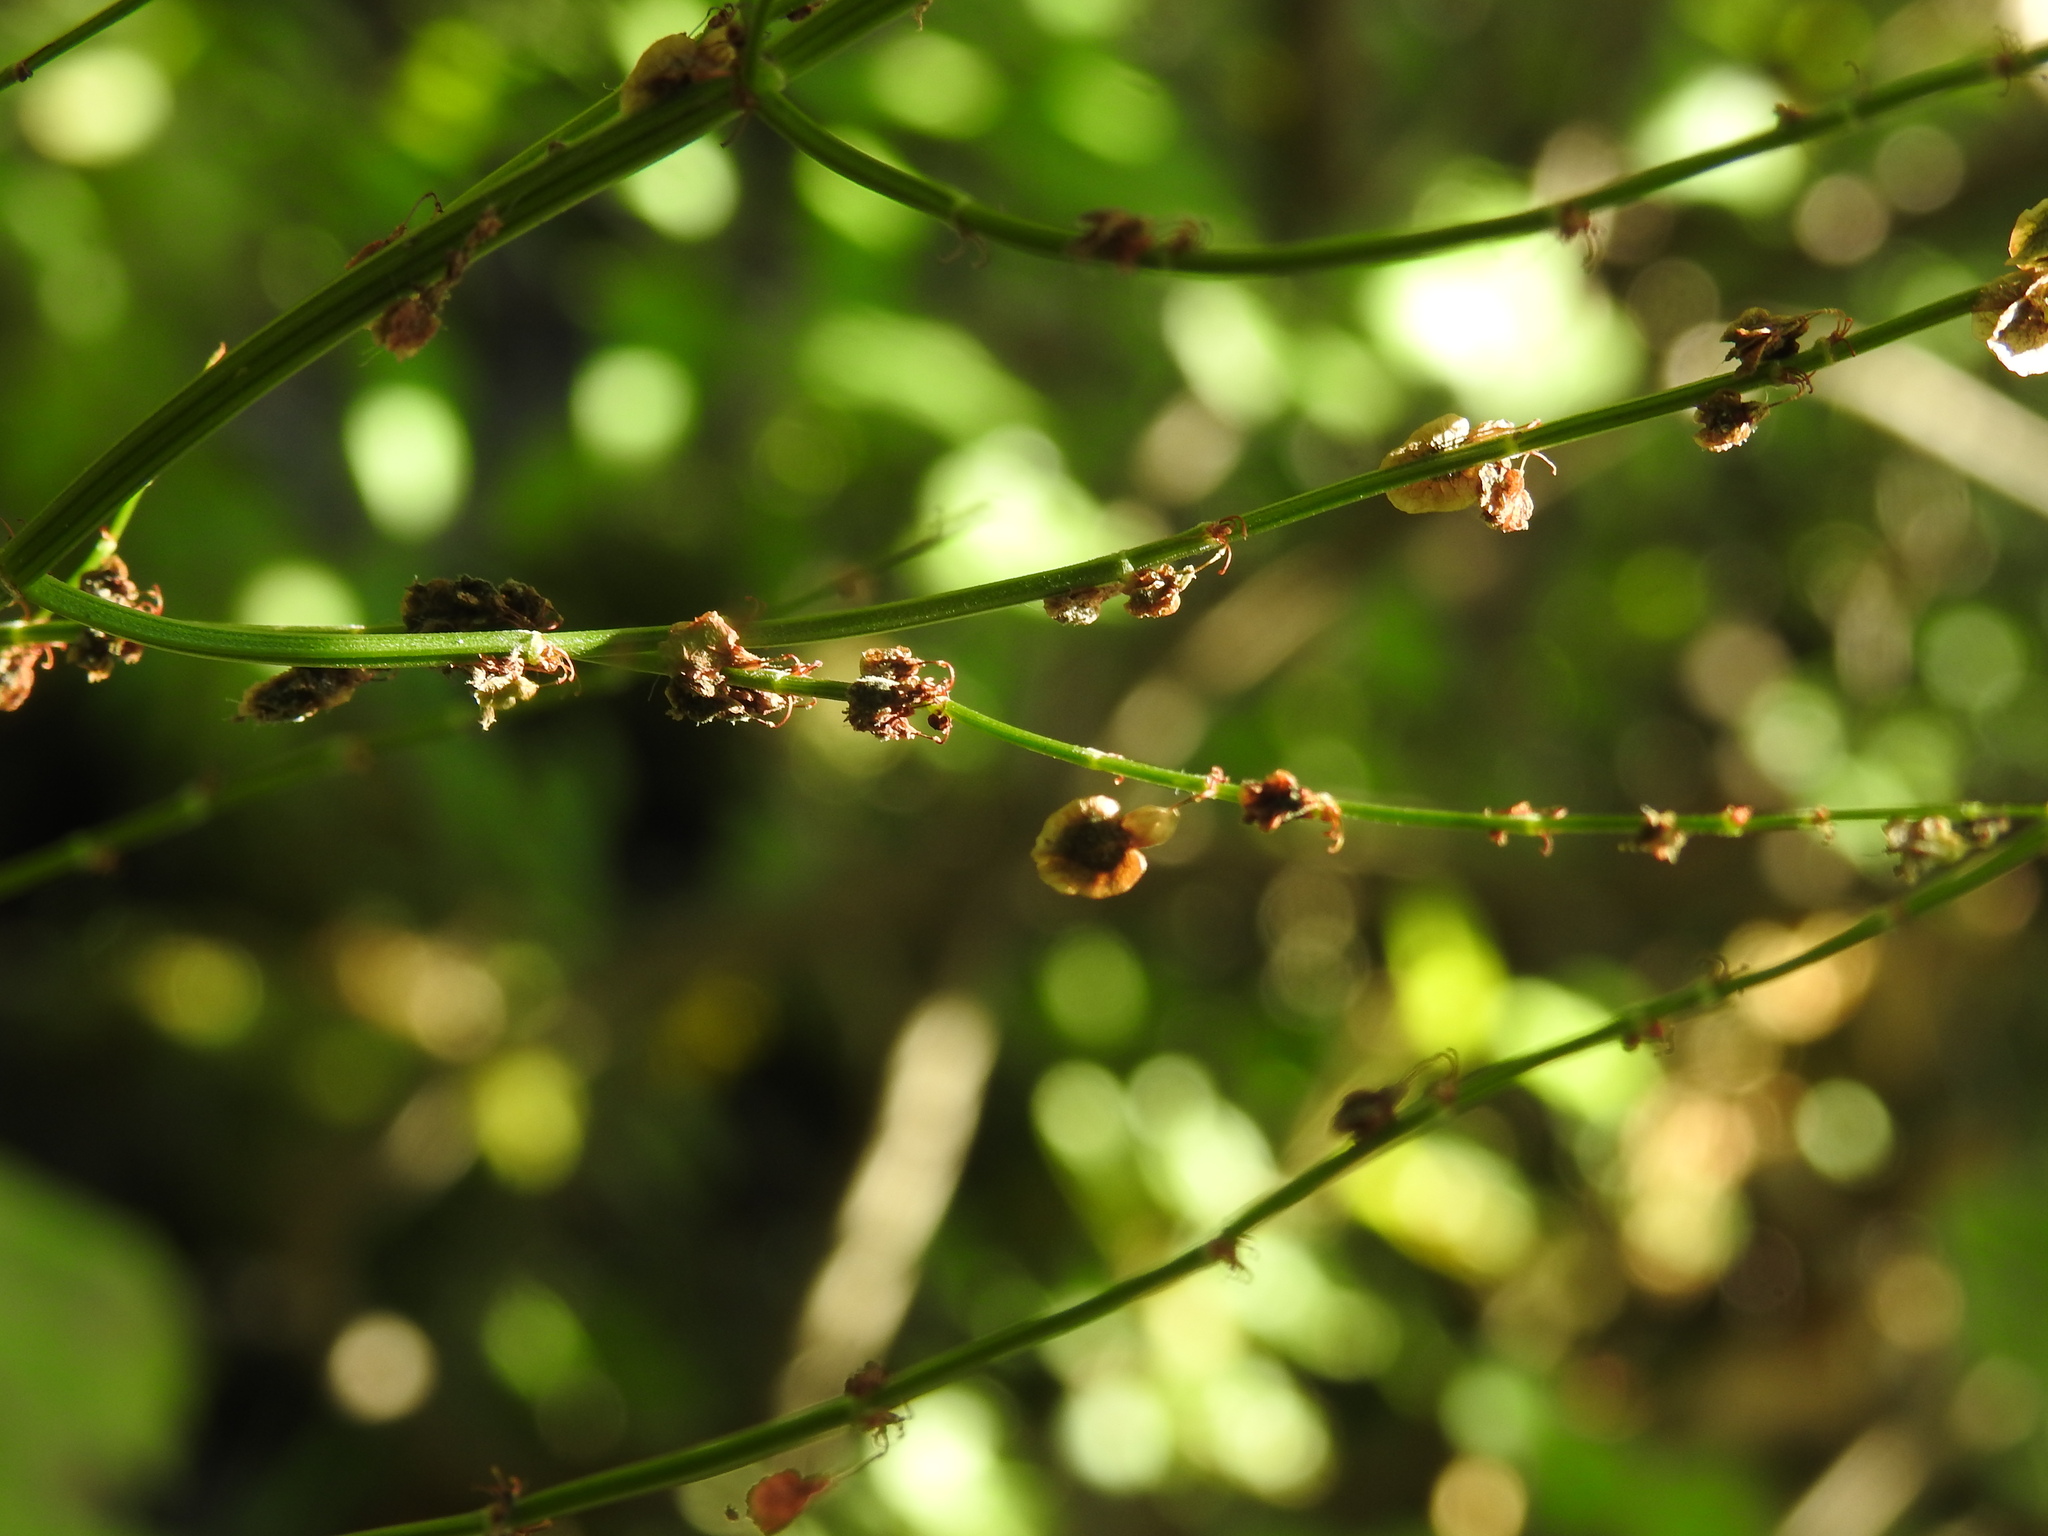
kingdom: Plantae
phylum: Tracheophyta
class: Magnoliopsida
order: Caryophyllales
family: Polygonaceae
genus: Rumex
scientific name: Rumex arifolius
